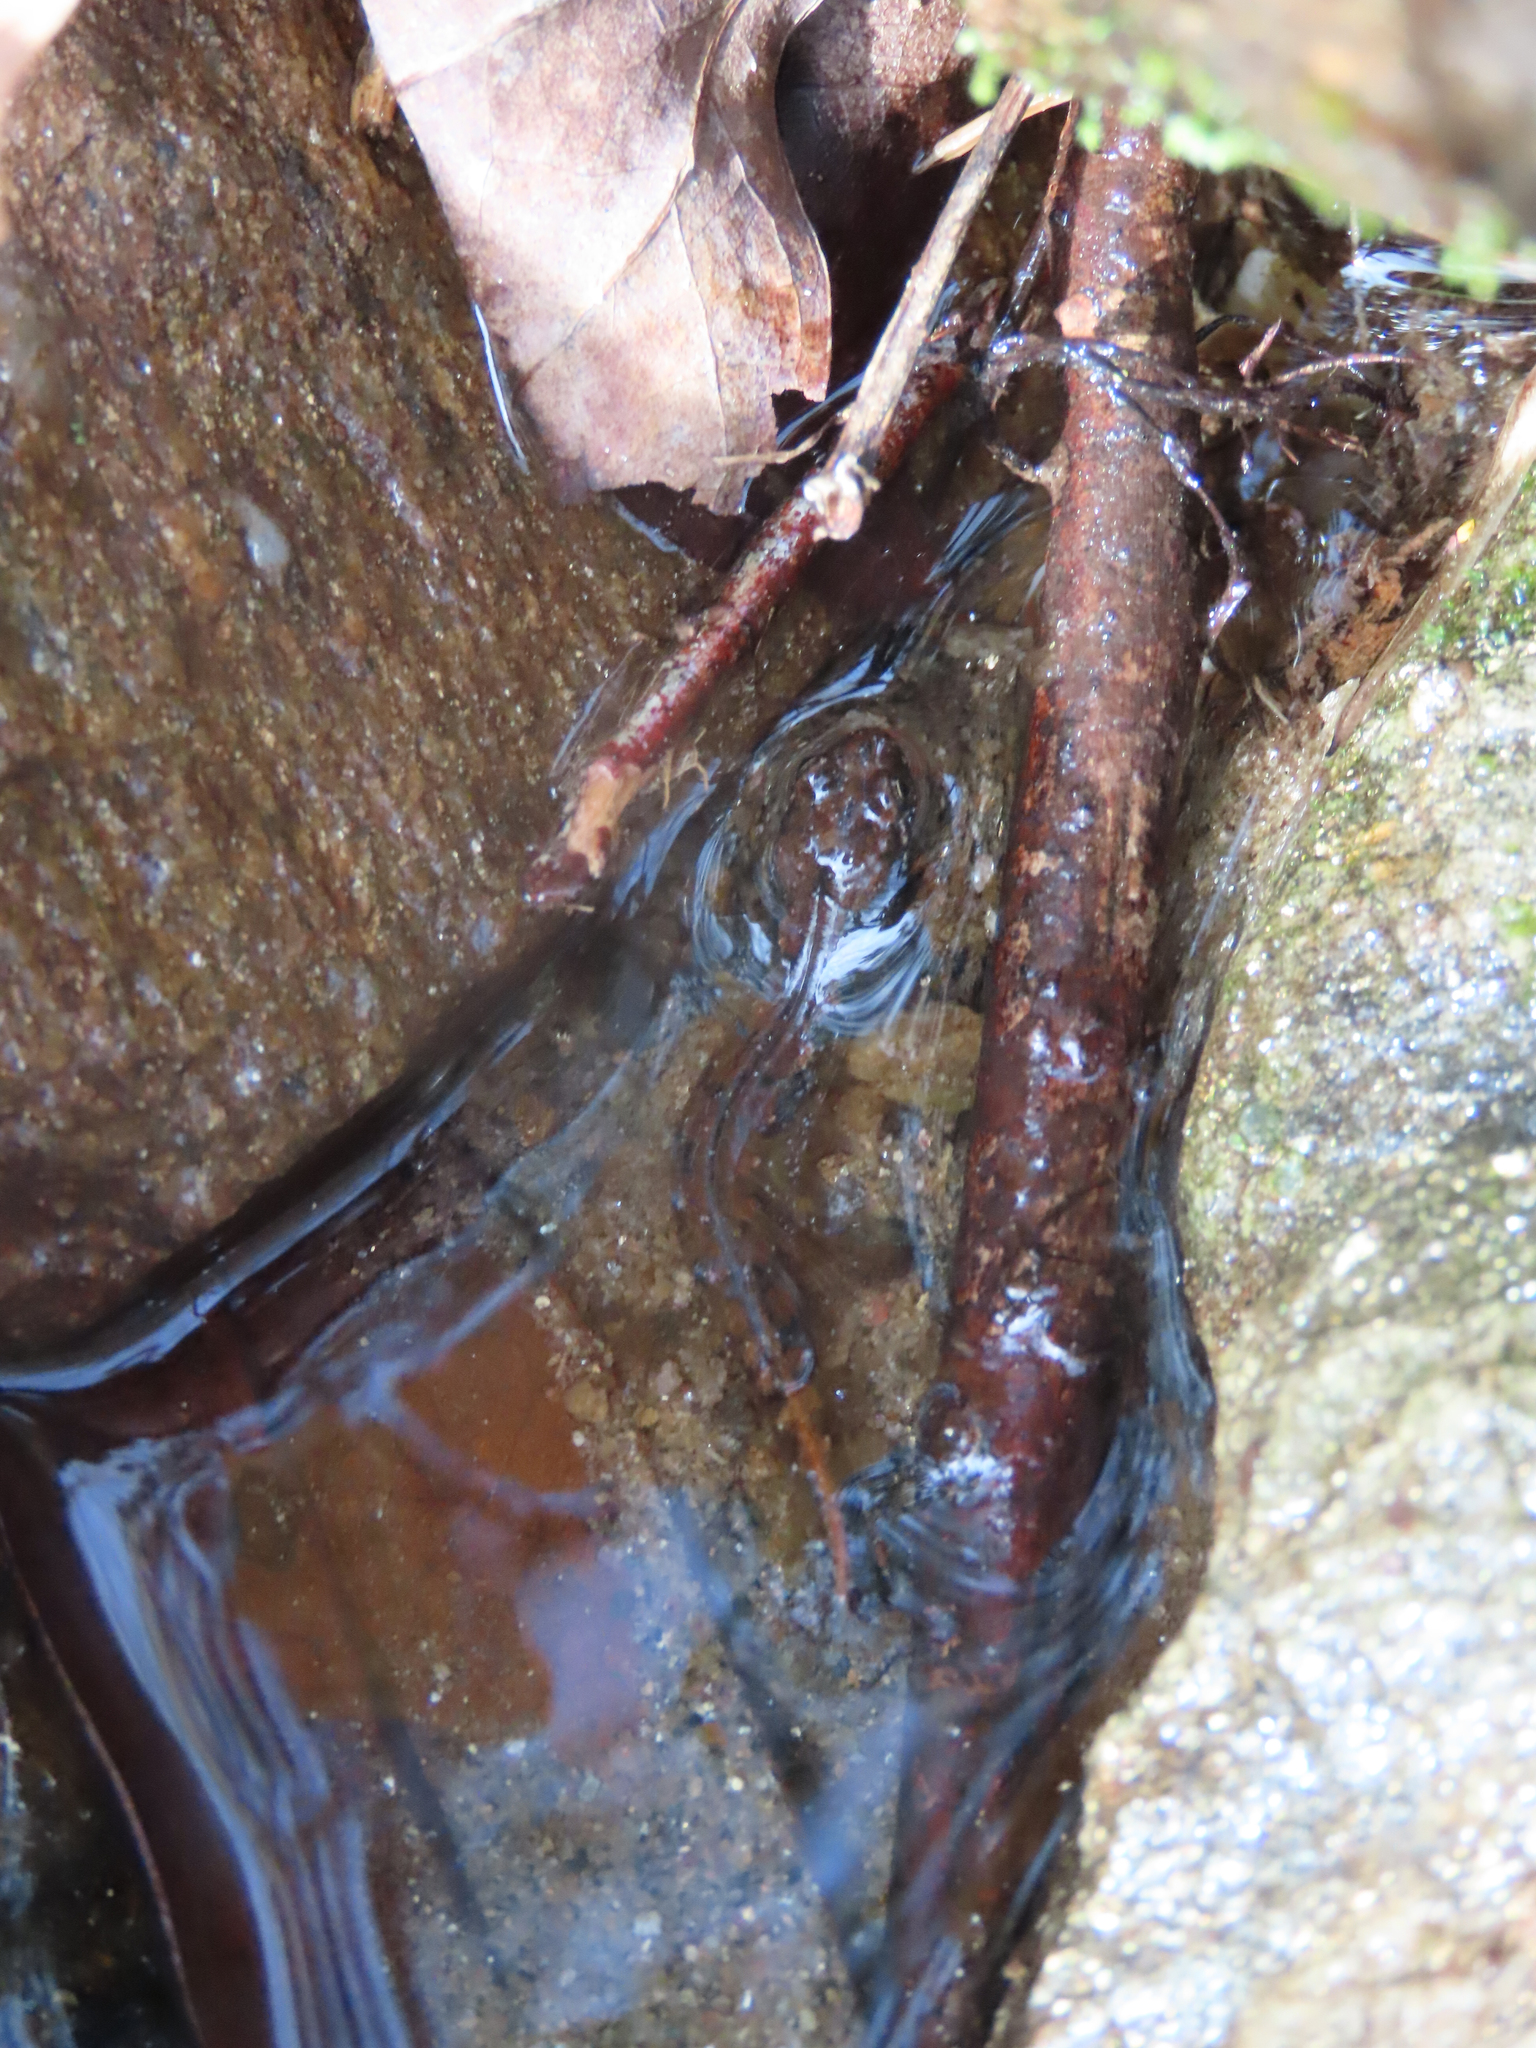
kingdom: Animalia
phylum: Chordata
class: Amphibia
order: Caudata
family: Plethodontidae
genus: Desmognathus
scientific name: Desmognathus planiceps
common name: Flat-headed salamander
